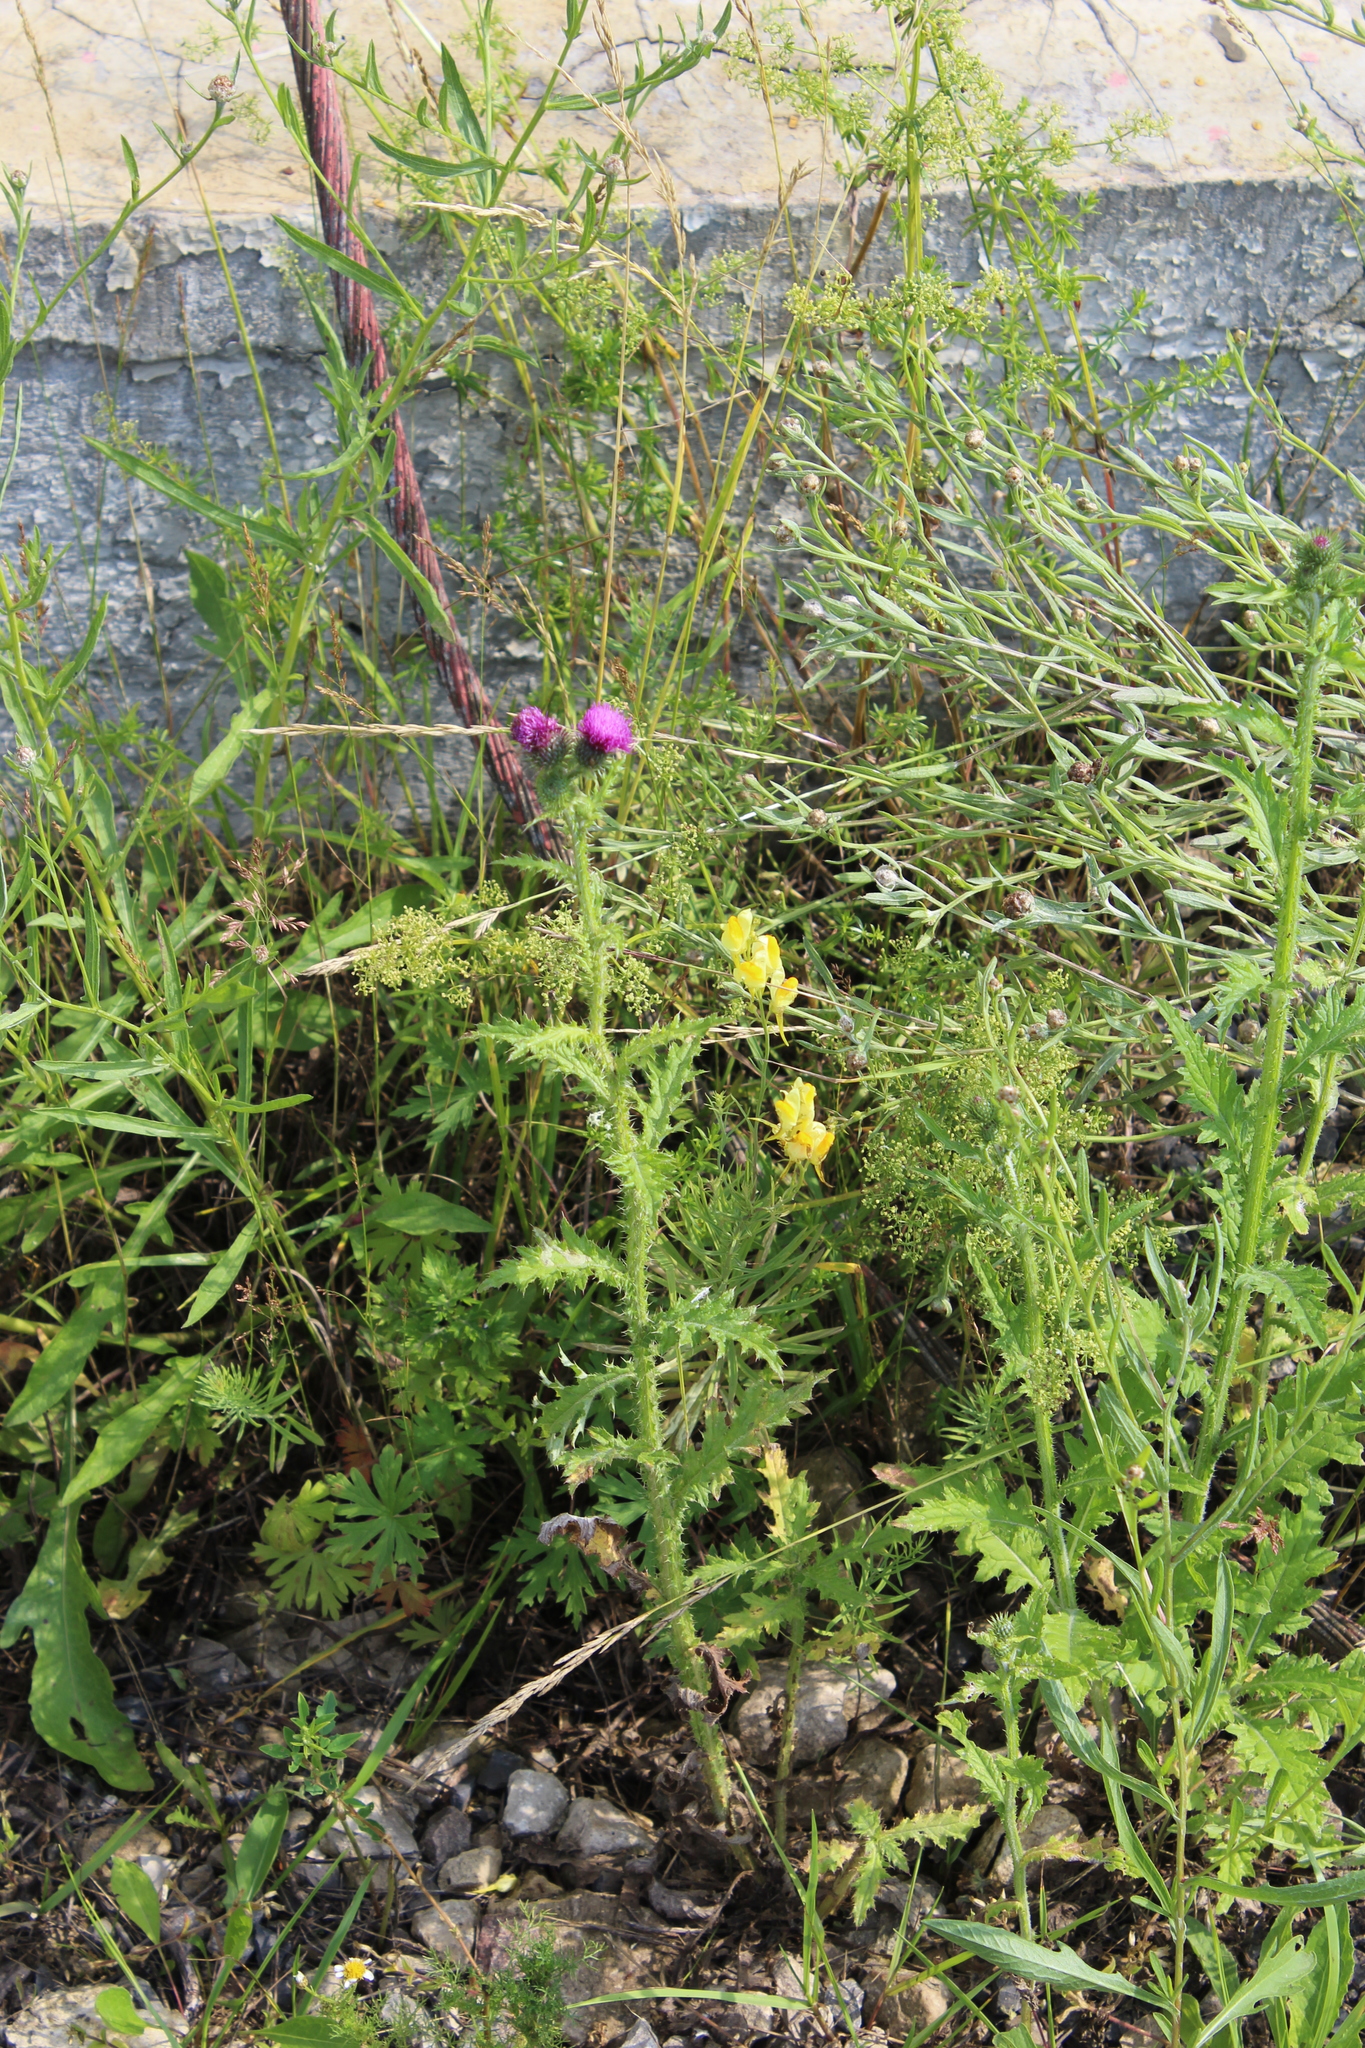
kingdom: Plantae
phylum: Tracheophyta
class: Magnoliopsida
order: Asterales
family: Asteraceae
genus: Carduus
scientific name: Carduus crispus
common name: Welted thistle
